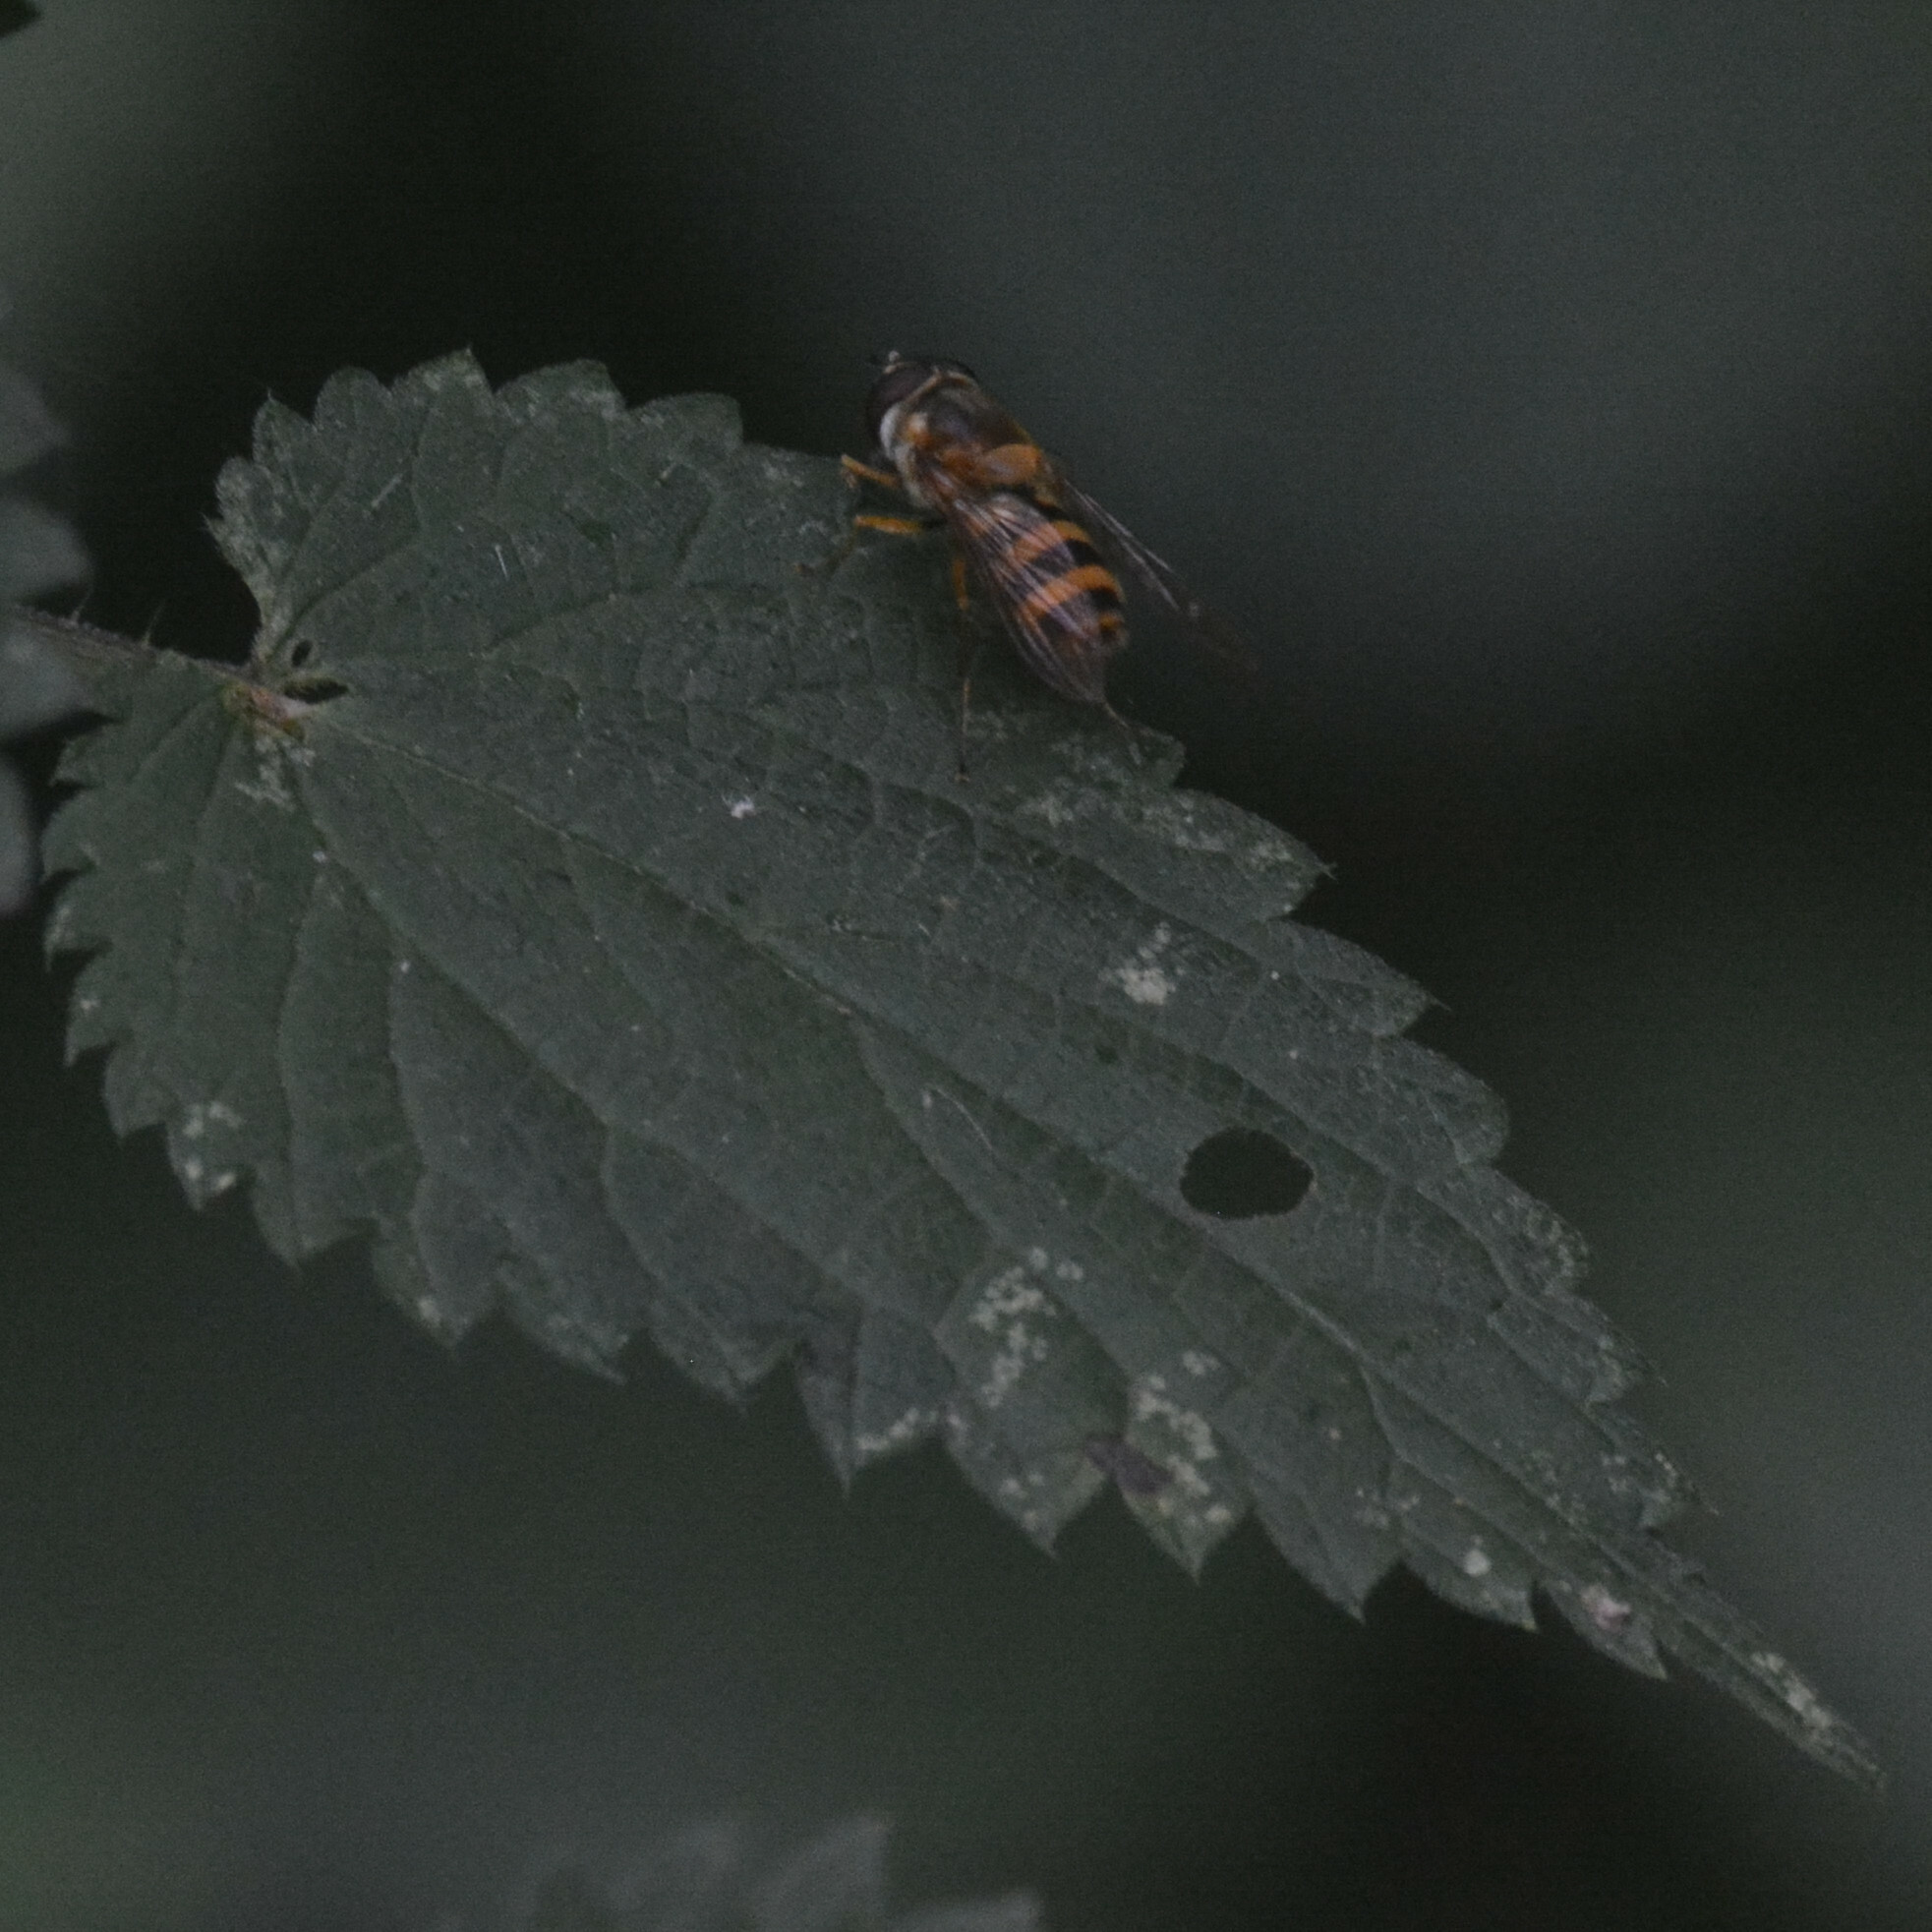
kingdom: Animalia
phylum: Arthropoda
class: Insecta
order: Diptera
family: Syrphidae
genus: Epistrophe
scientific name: Epistrophe grossulariae
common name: Black-horned smoothtail
